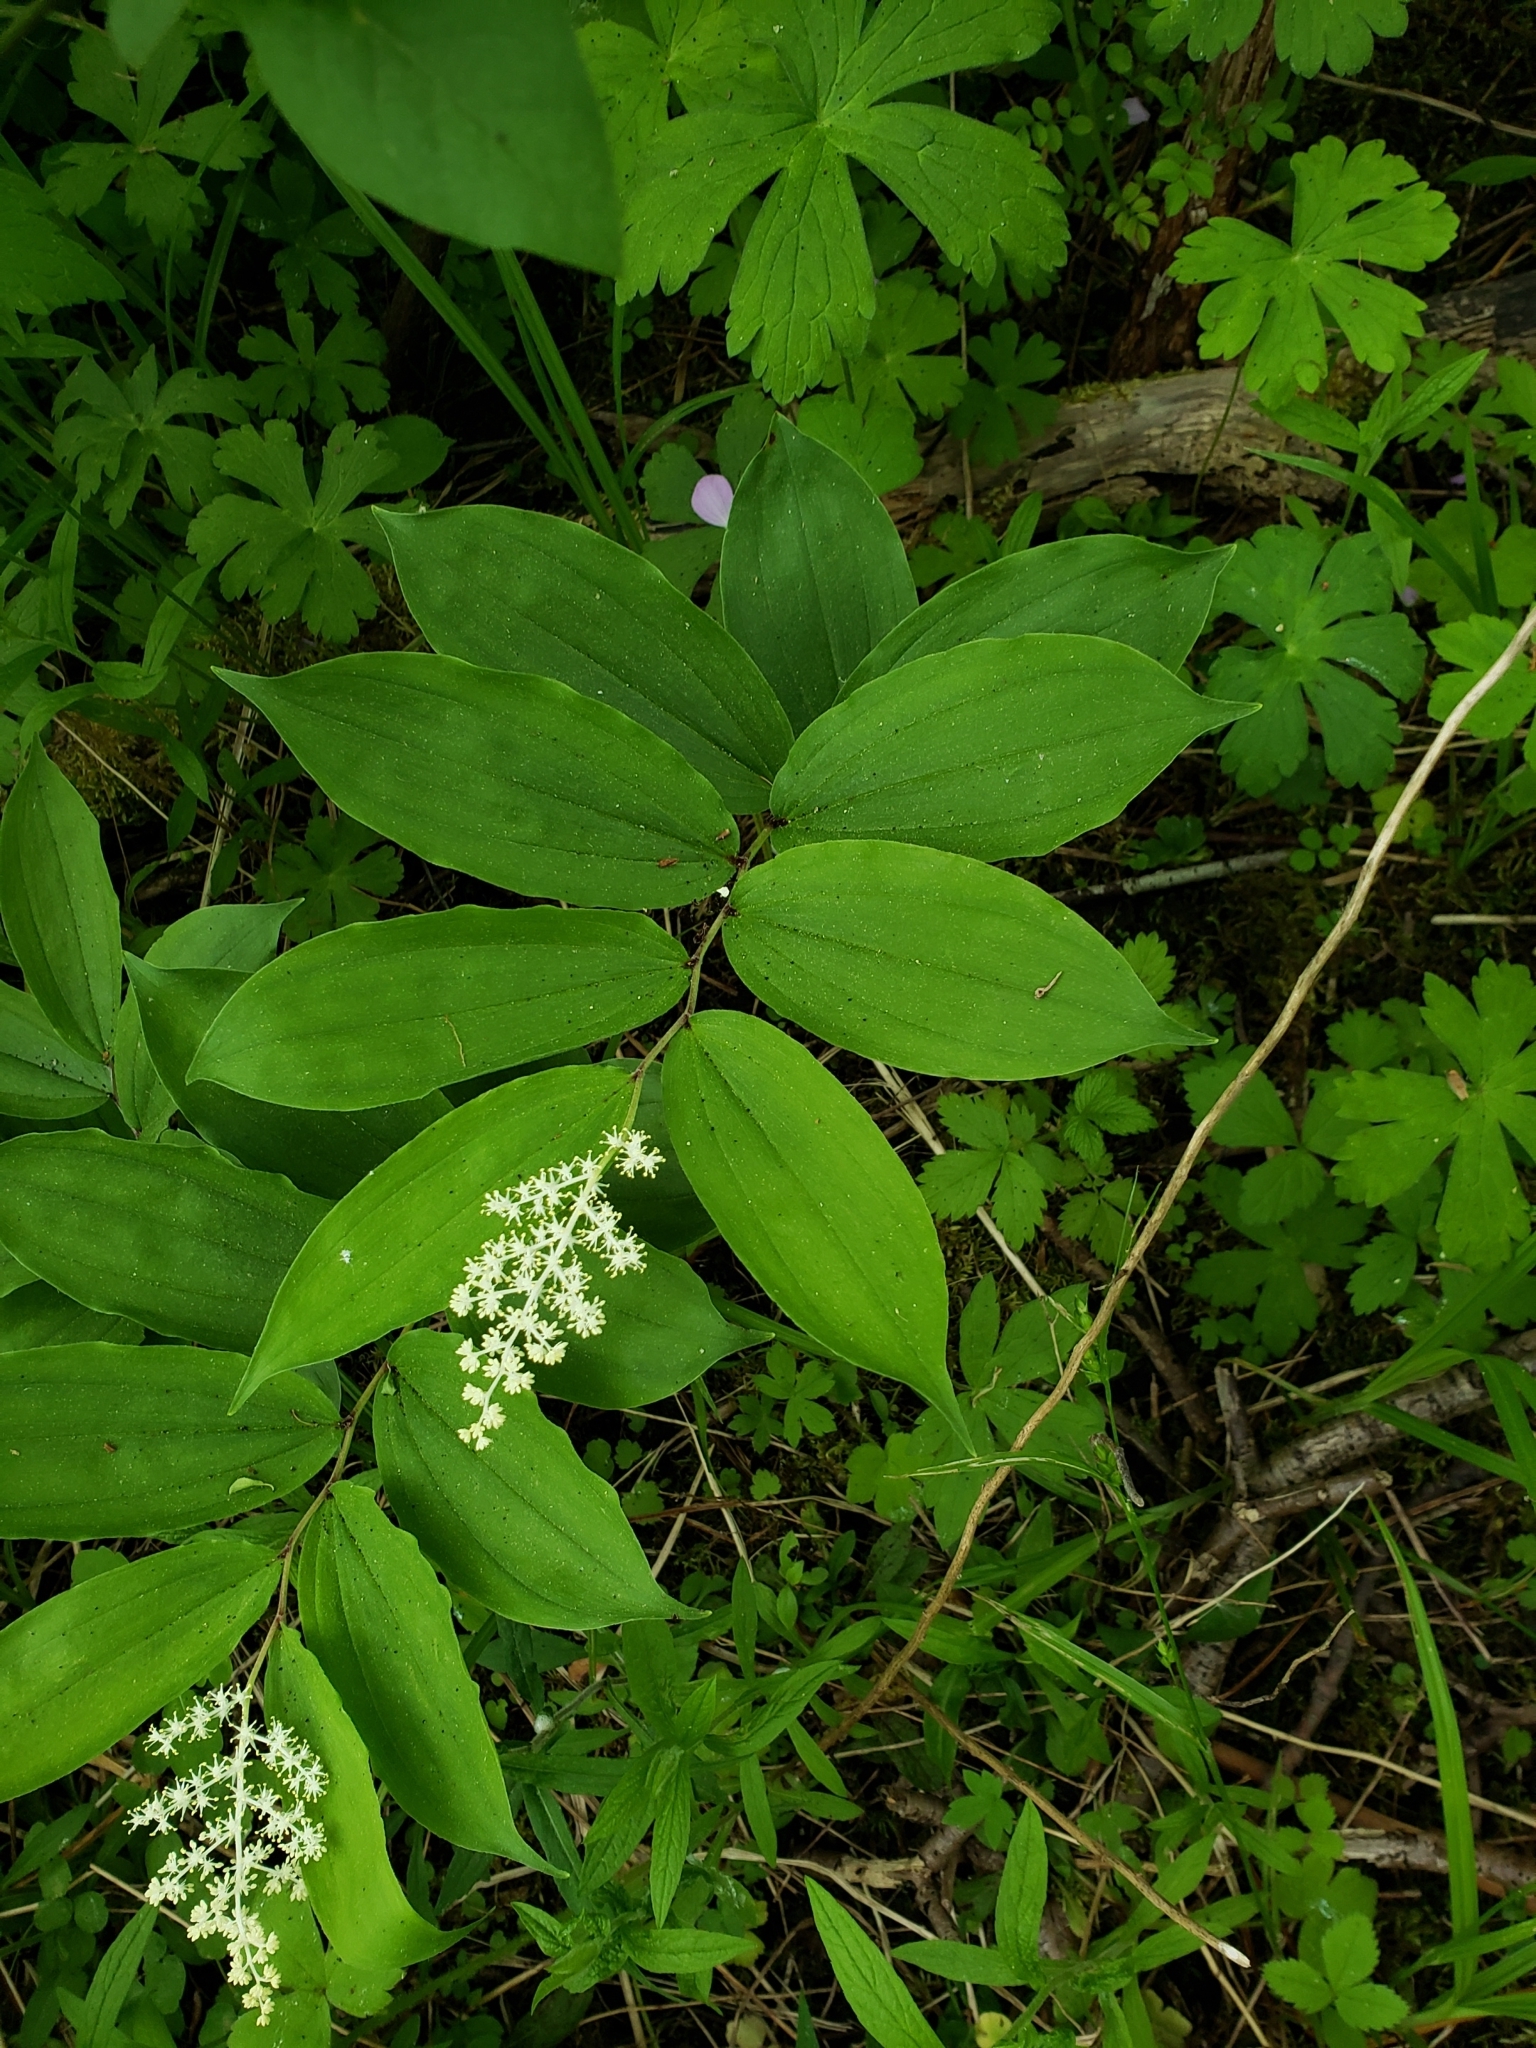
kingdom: Plantae
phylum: Tracheophyta
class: Liliopsida
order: Asparagales
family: Asparagaceae
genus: Maianthemum
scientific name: Maianthemum racemosum
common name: False spikenard
